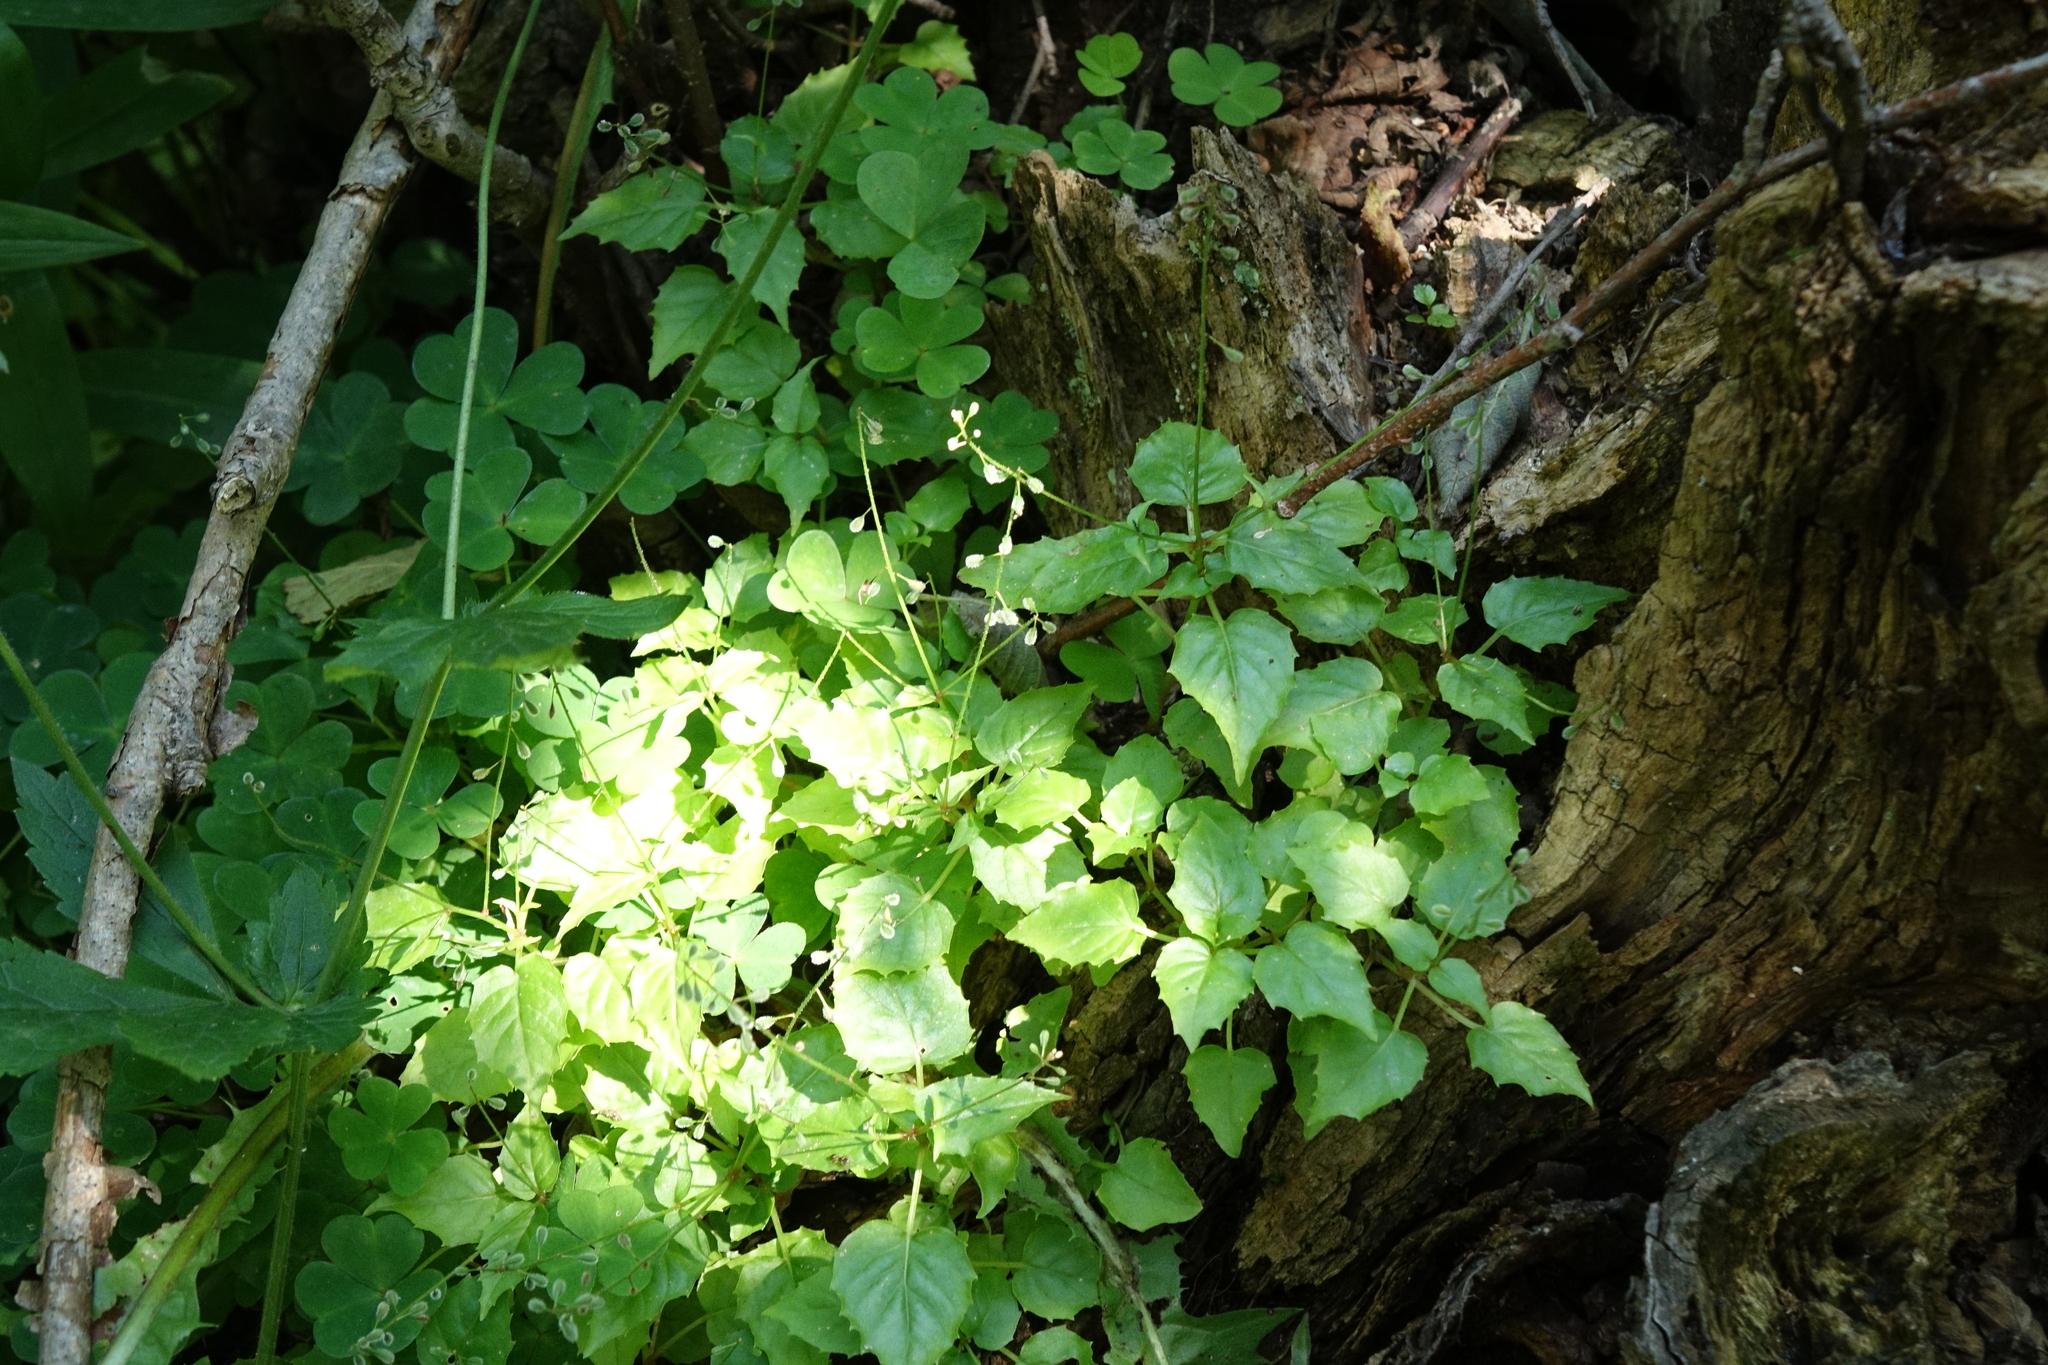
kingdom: Plantae
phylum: Tracheophyta
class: Magnoliopsida
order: Myrtales
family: Onagraceae
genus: Circaea
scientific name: Circaea alpina
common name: Alpine enchanter's-nightshade
